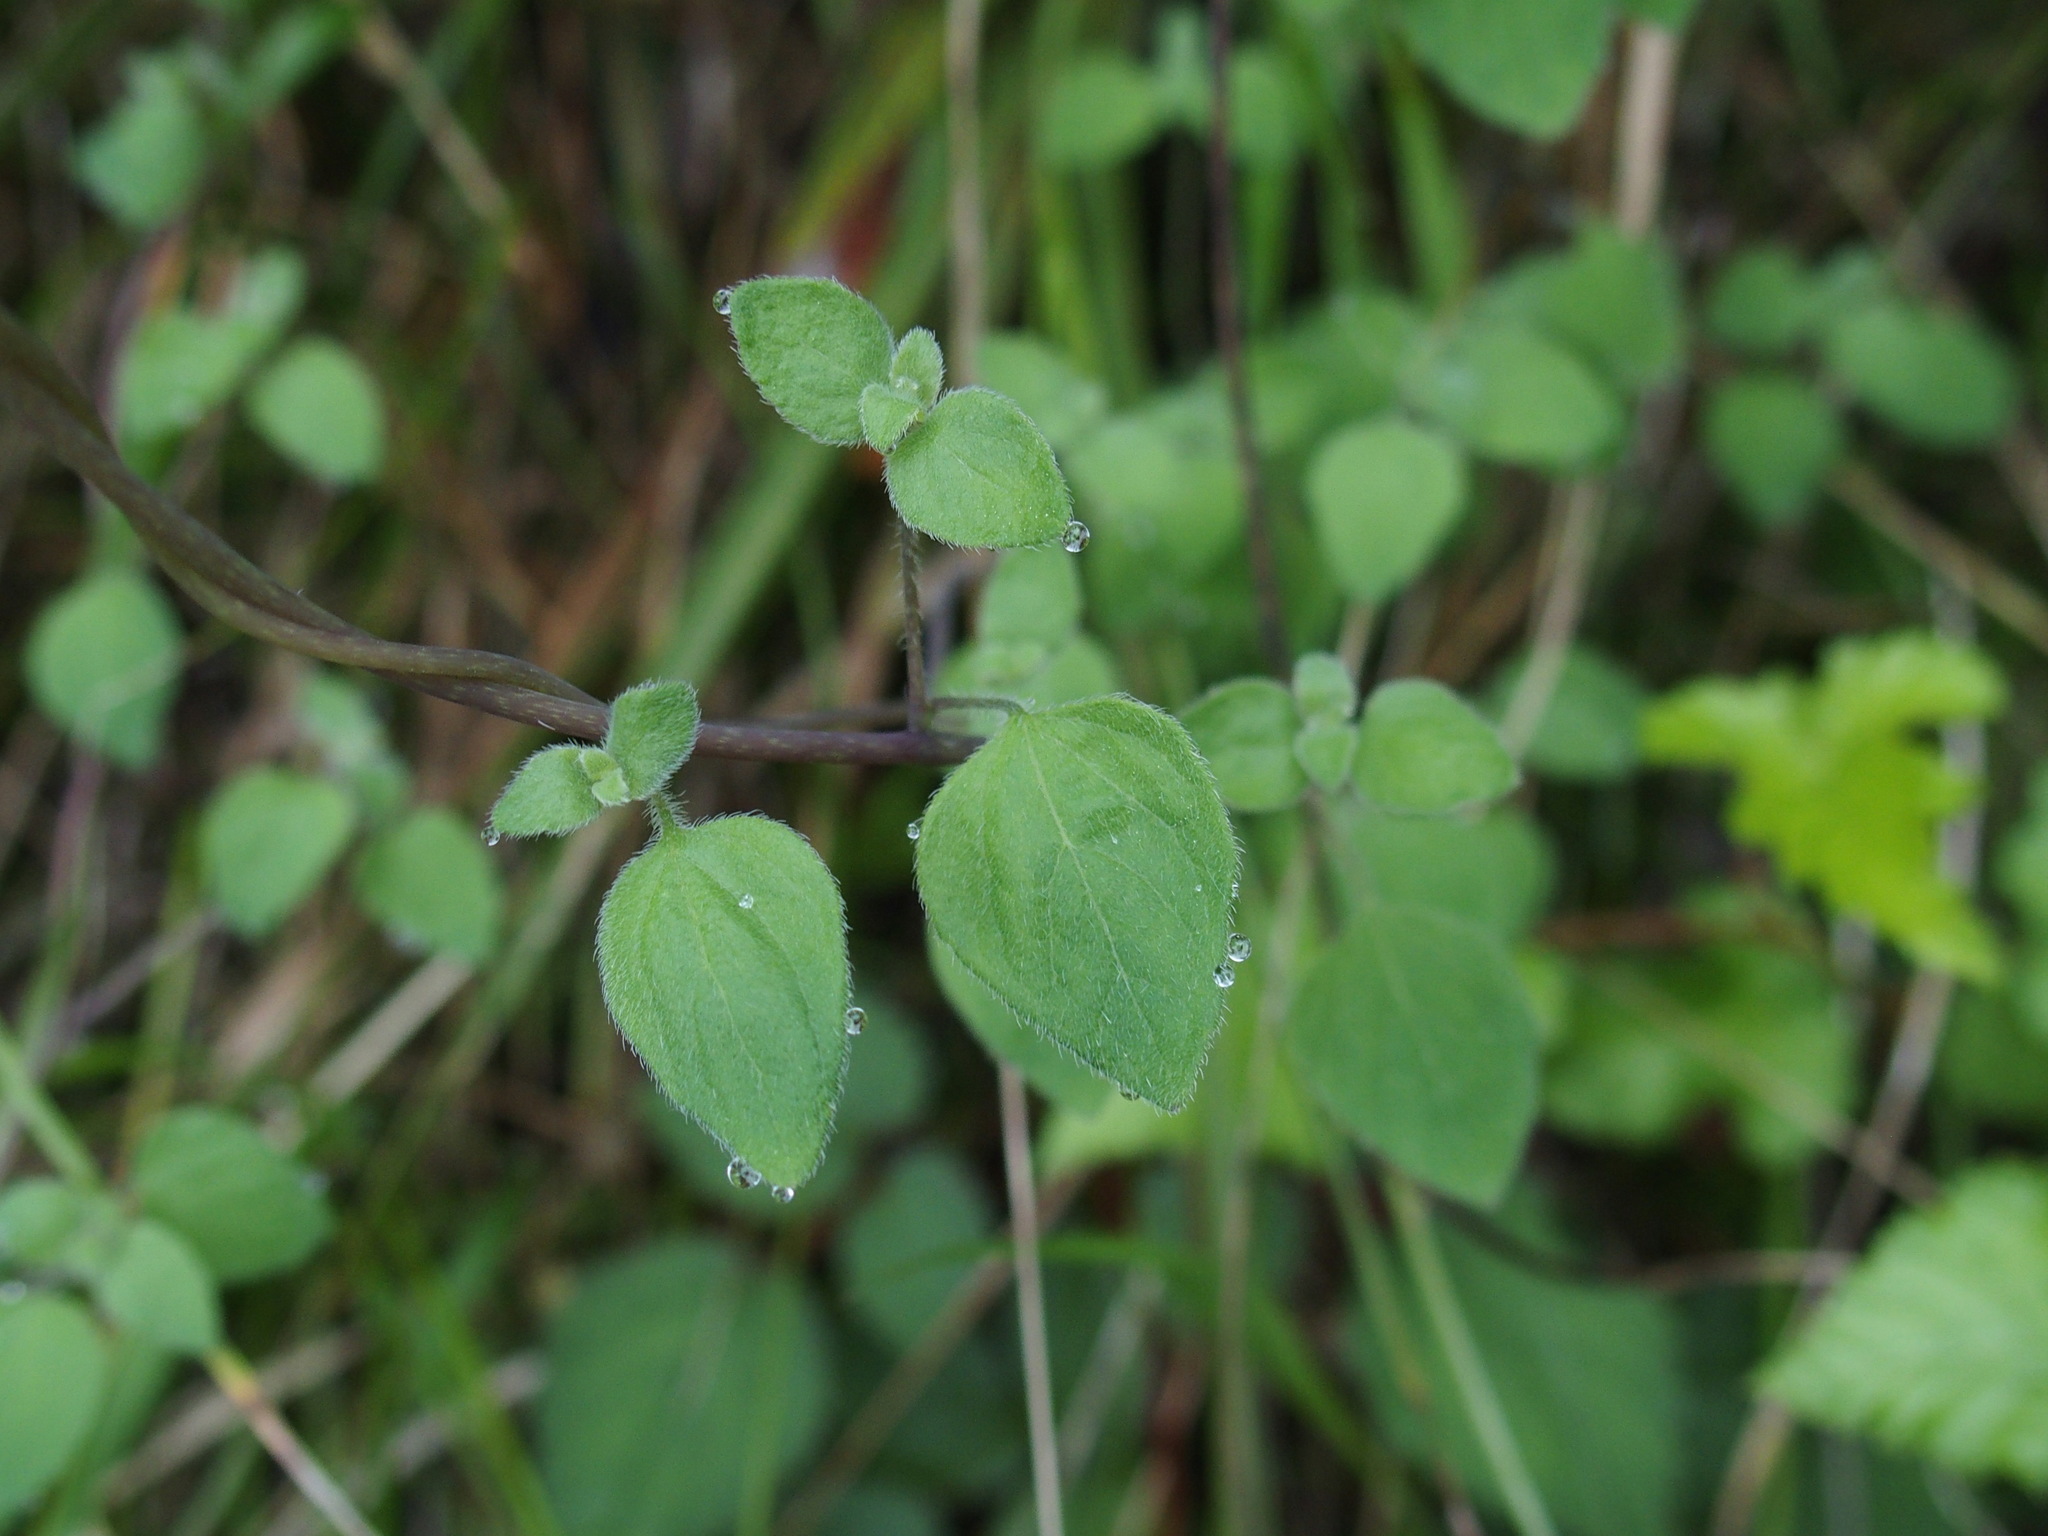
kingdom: Plantae
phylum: Tracheophyta
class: Magnoliopsida
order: Asterales
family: Campanulaceae
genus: Codonopsis
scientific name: Codonopsis kawakamii
